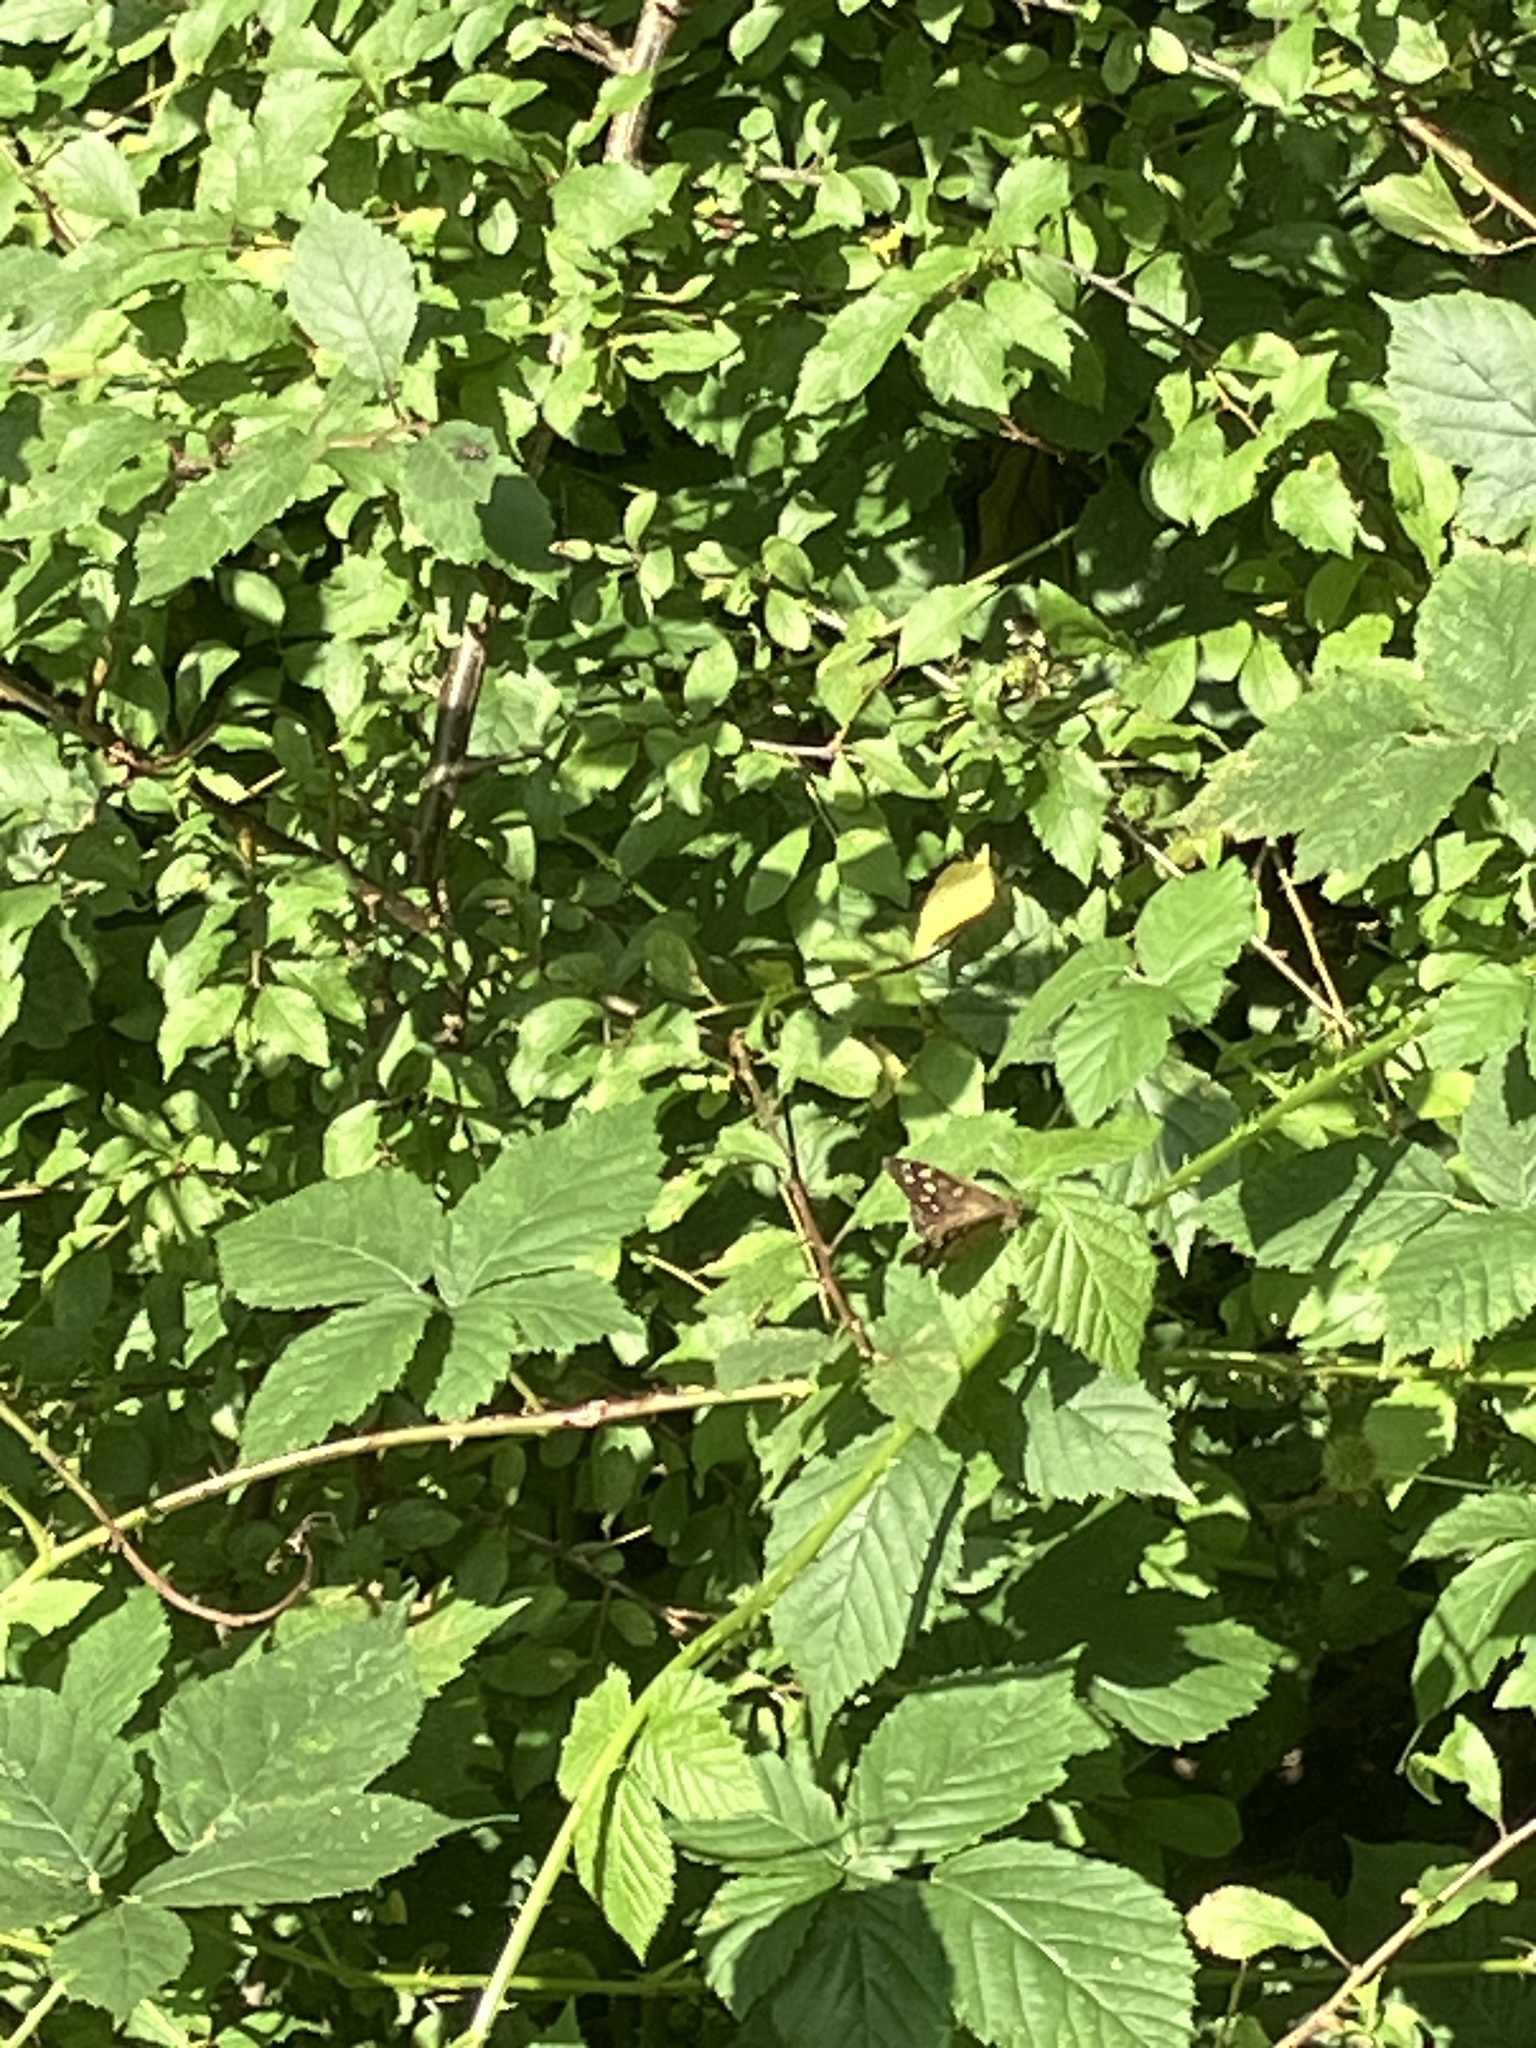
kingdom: Animalia
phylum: Arthropoda
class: Insecta
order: Lepidoptera
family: Nymphalidae
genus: Pararge
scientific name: Pararge aegeria
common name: Speckled wood
